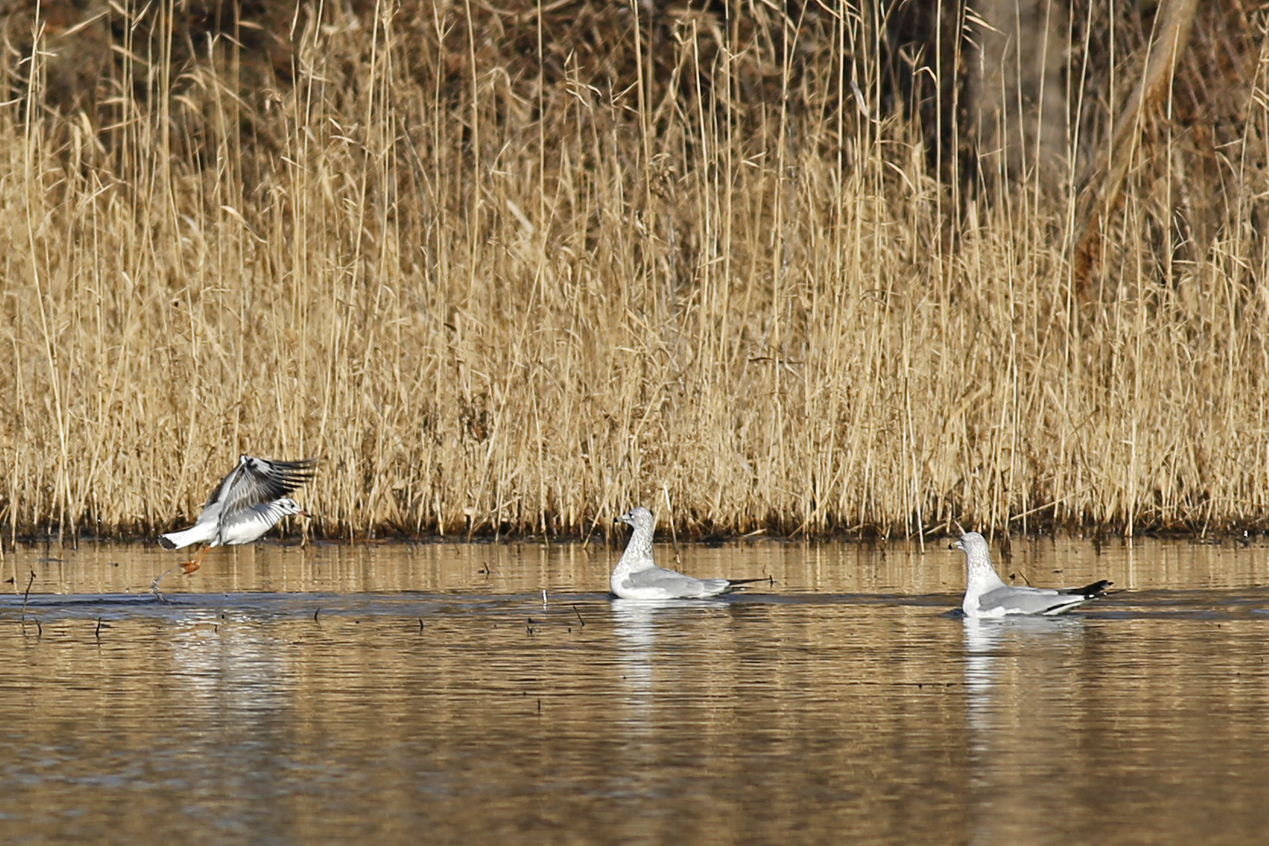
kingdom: Animalia
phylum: Chordata
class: Aves
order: Charadriiformes
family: Laridae
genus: Chroicocephalus
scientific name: Chroicocephalus ridibundus
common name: Black-headed gull
